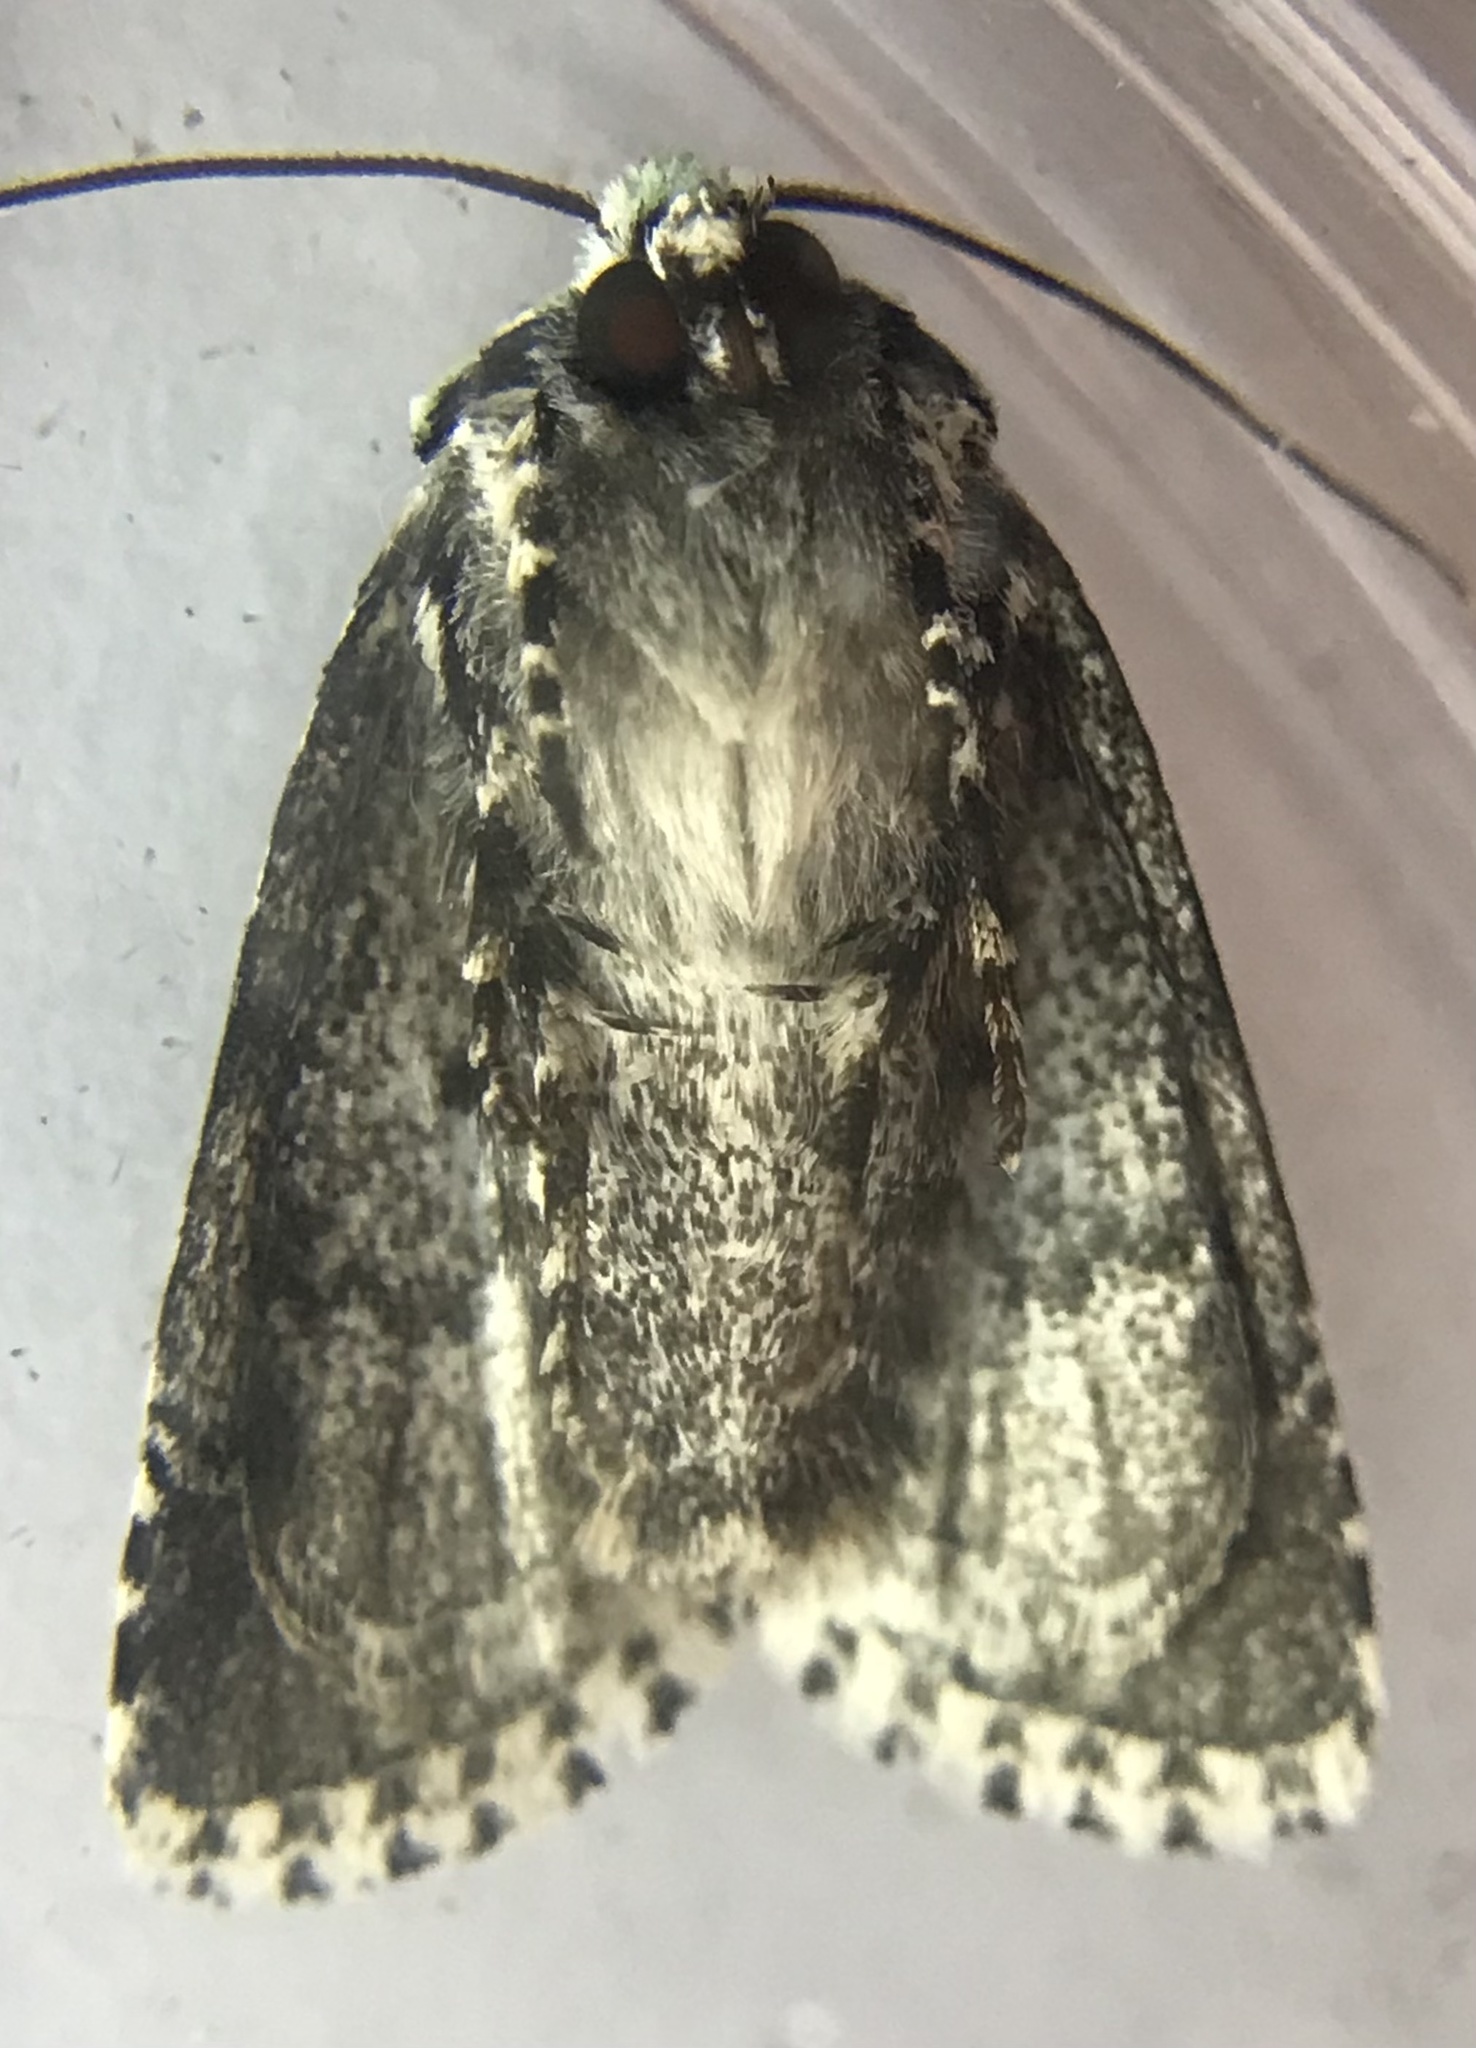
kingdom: Animalia
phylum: Arthropoda
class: Insecta
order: Lepidoptera
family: Noctuidae
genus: Lacinipolia
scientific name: Lacinipolia implicata
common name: Implicit arches
